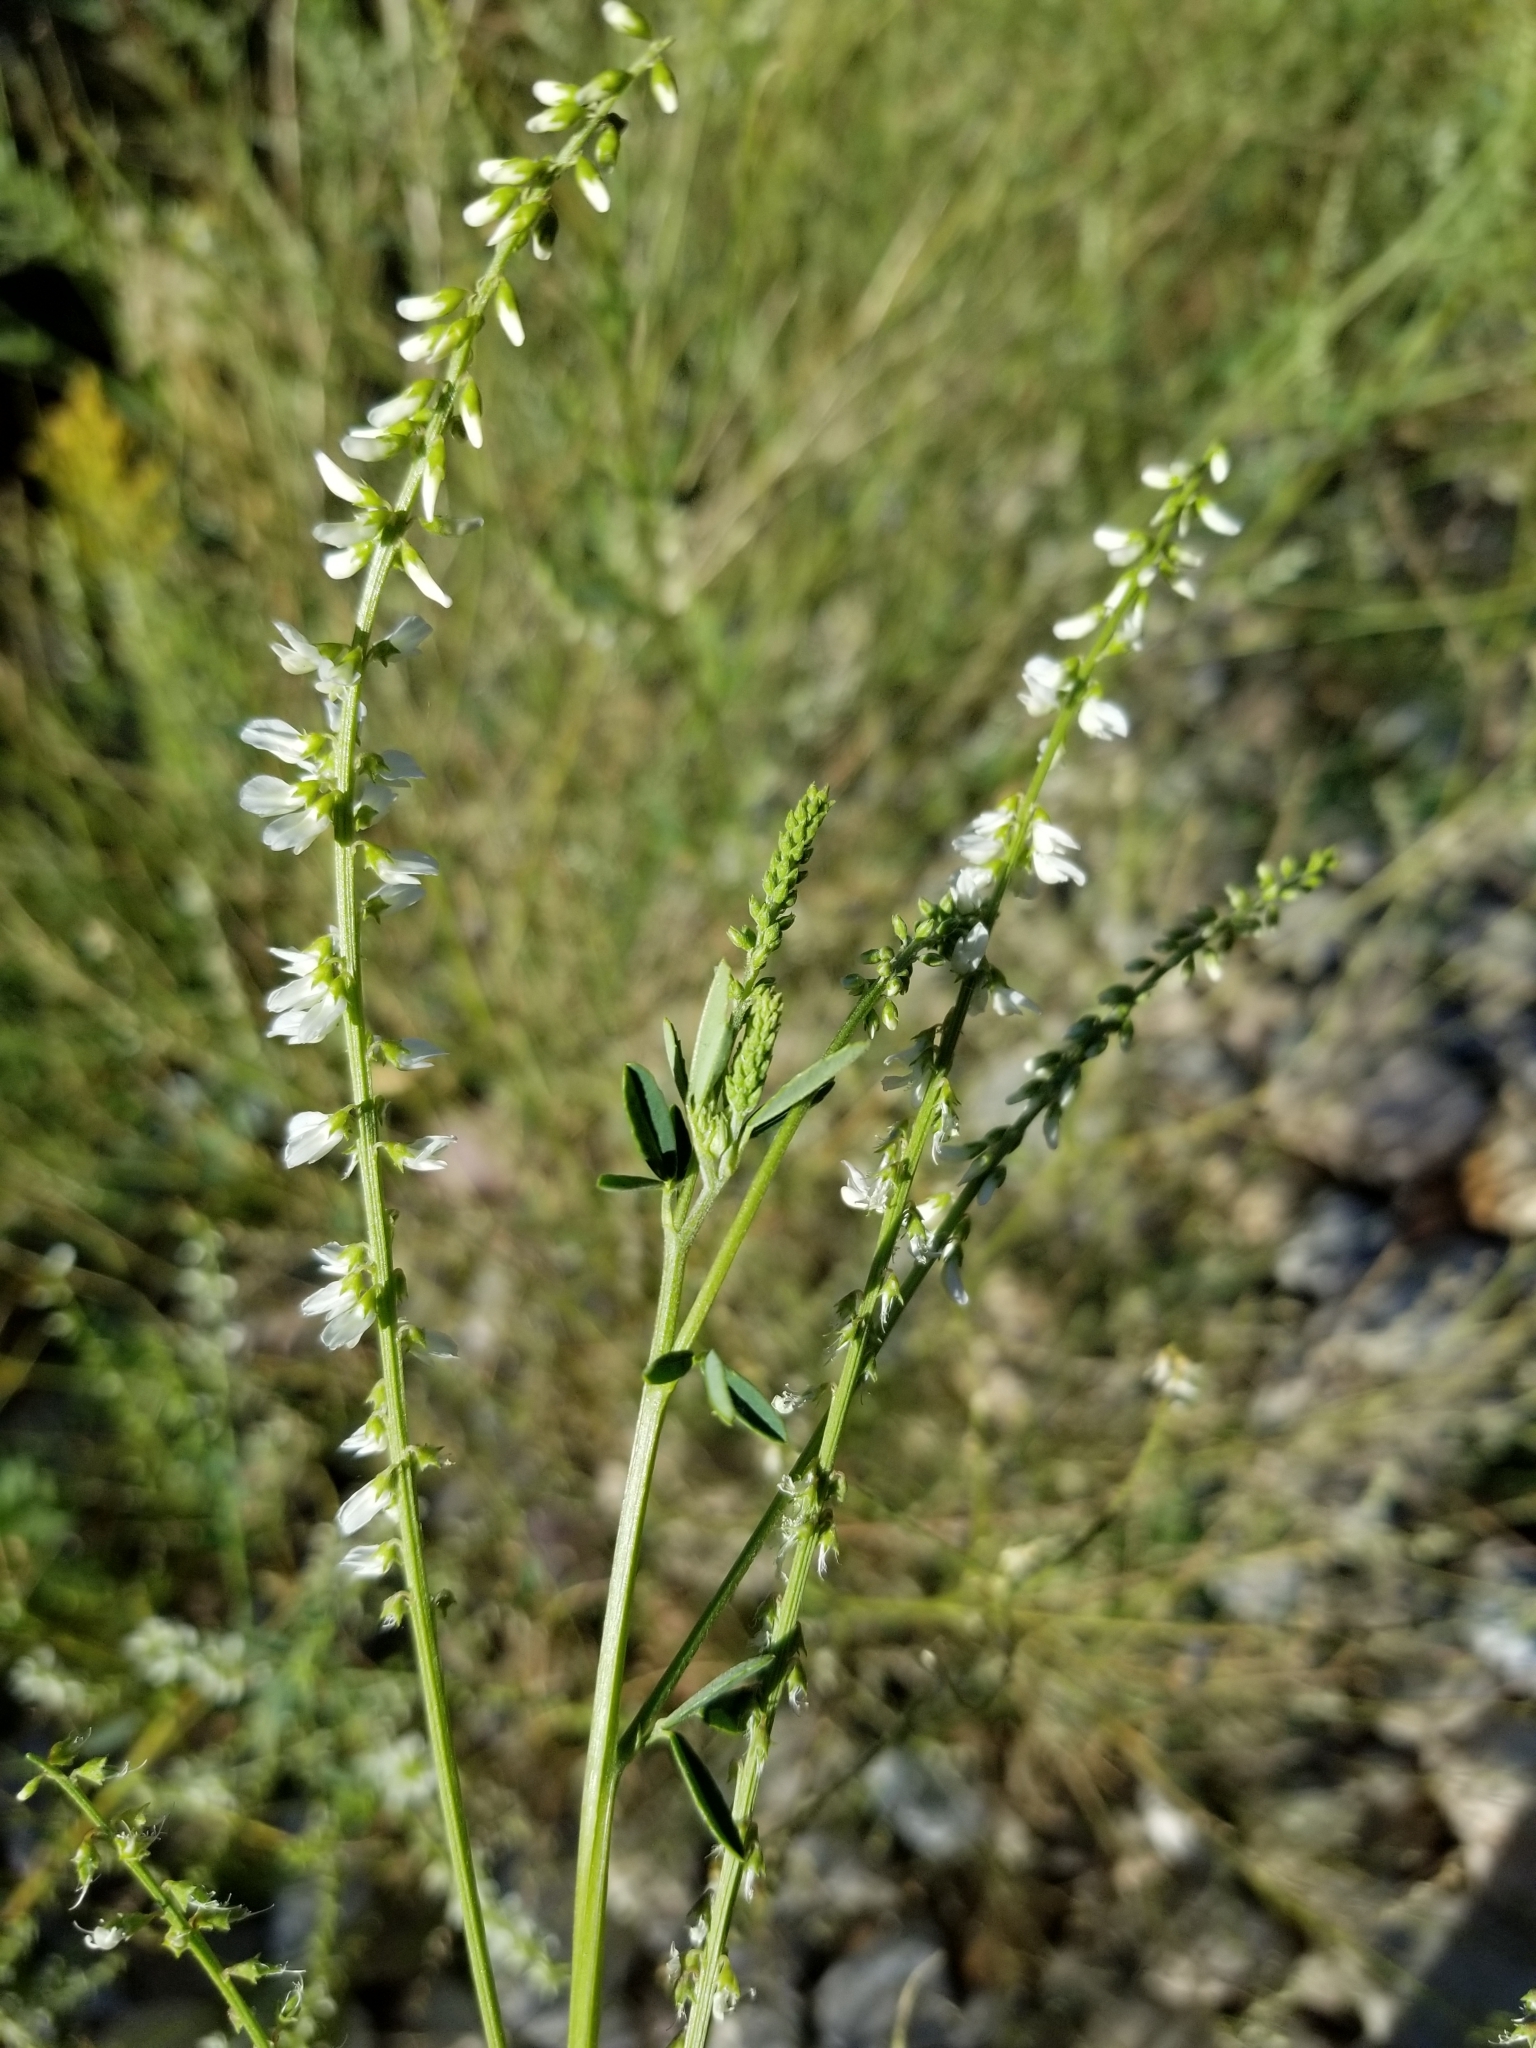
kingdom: Plantae
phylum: Tracheophyta
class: Magnoliopsida
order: Fabales
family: Fabaceae
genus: Melilotus
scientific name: Melilotus albus
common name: White melilot
